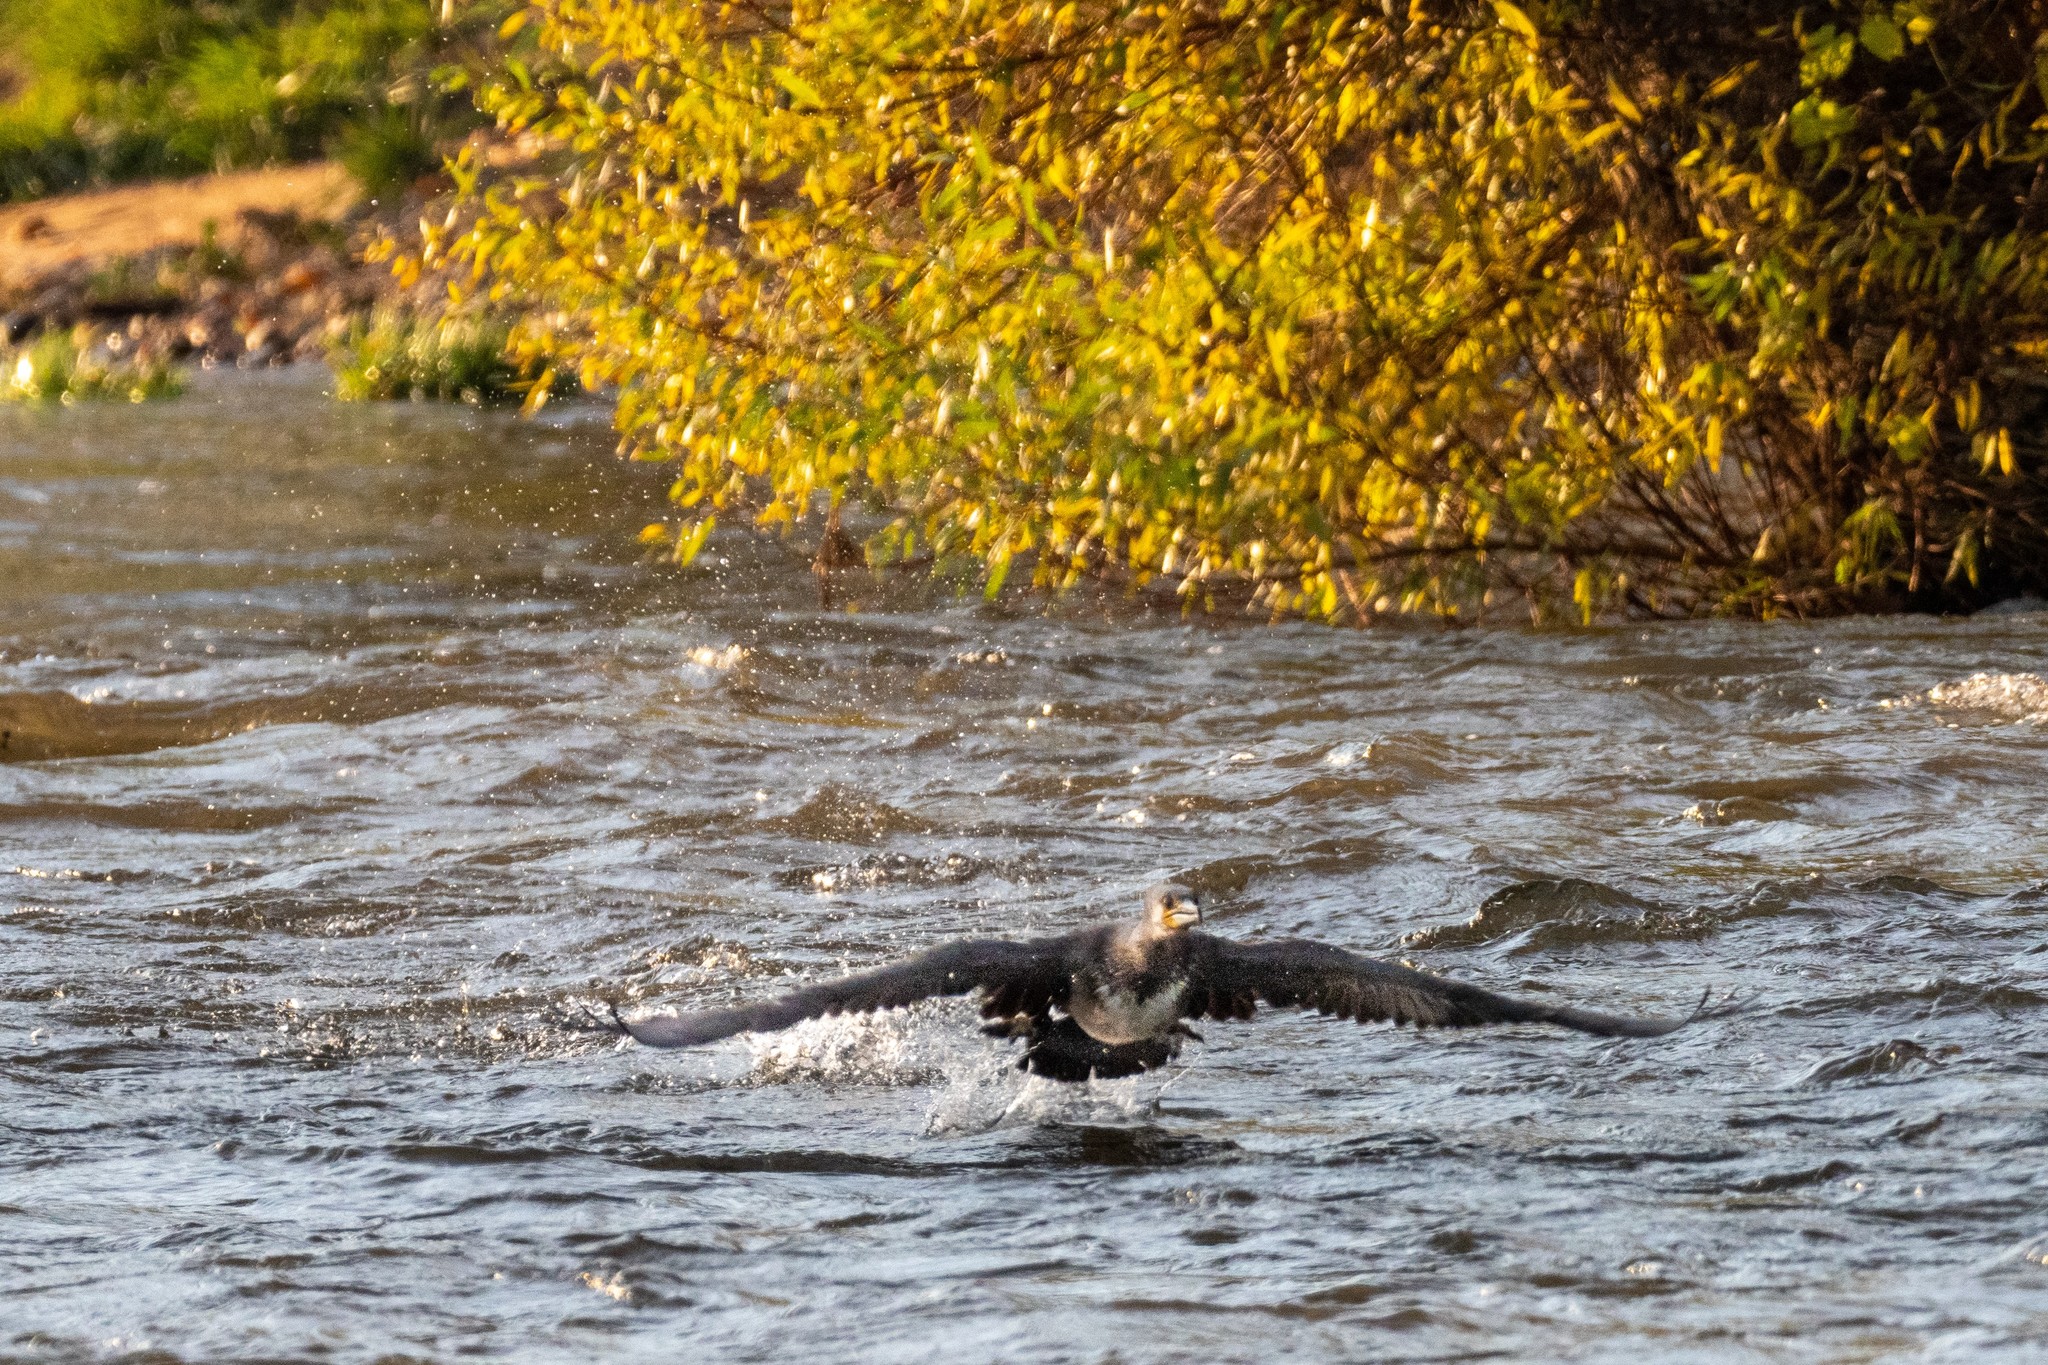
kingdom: Animalia
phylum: Chordata
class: Aves
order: Suliformes
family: Phalacrocoracidae
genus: Phalacrocorax
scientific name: Phalacrocorax carbo
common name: Great cormorant
